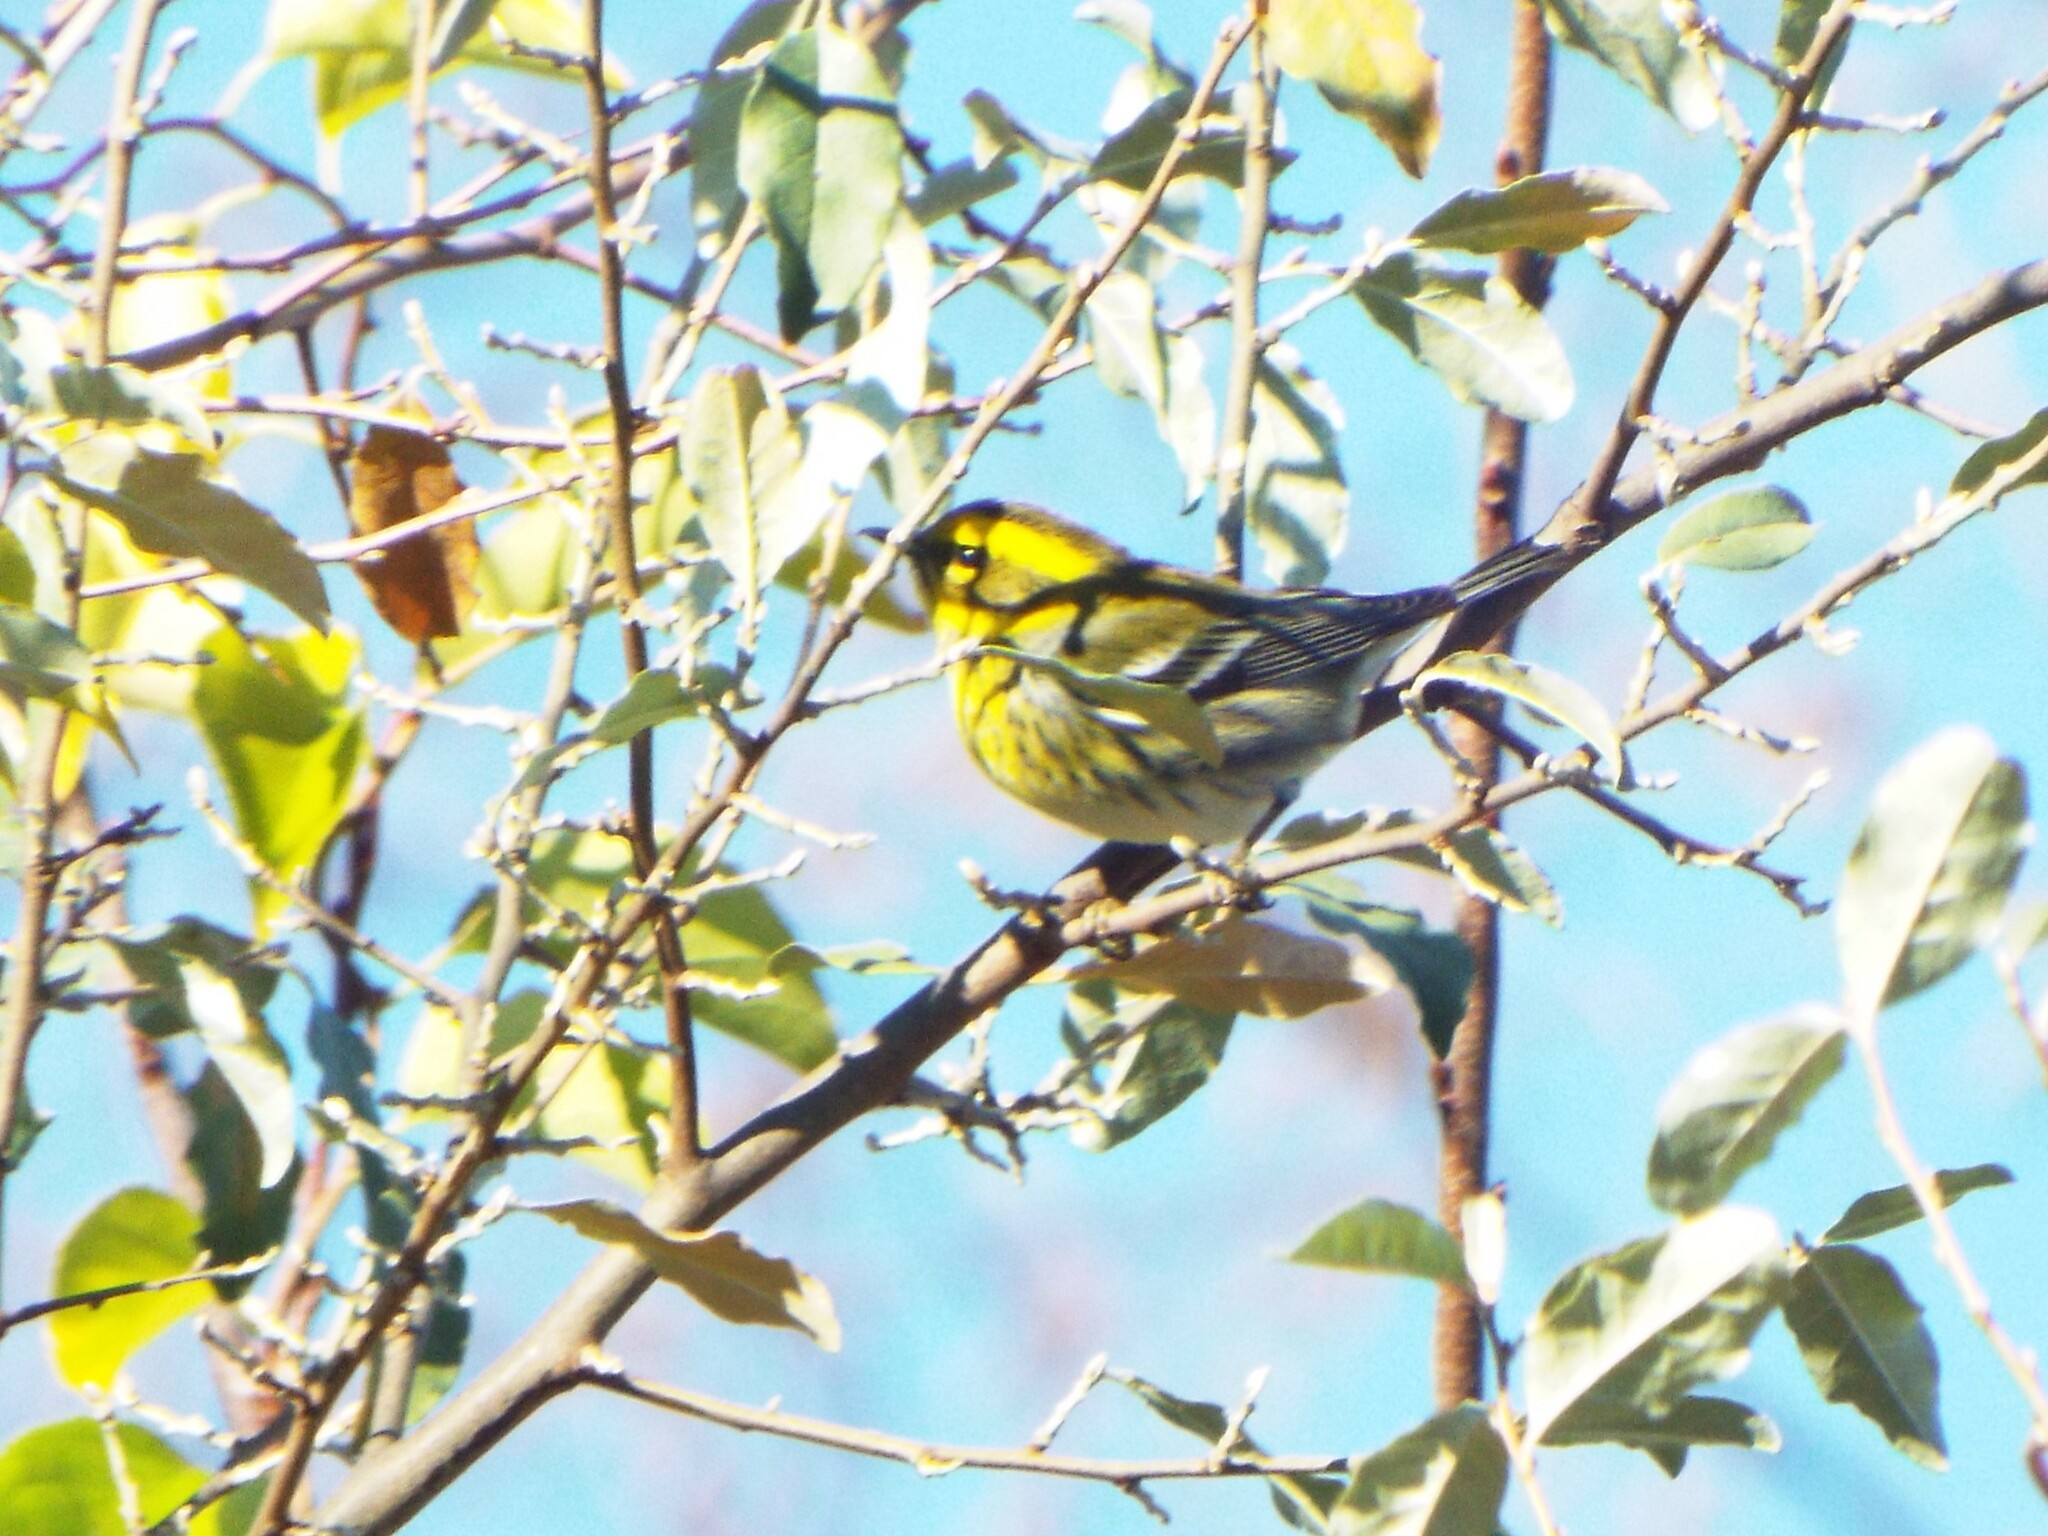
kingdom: Animalia
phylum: Chordata
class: Aves
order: Passeriformes
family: Parulidae
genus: Setophaga
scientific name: Setophaga townsendi
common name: Townsend's warbler
